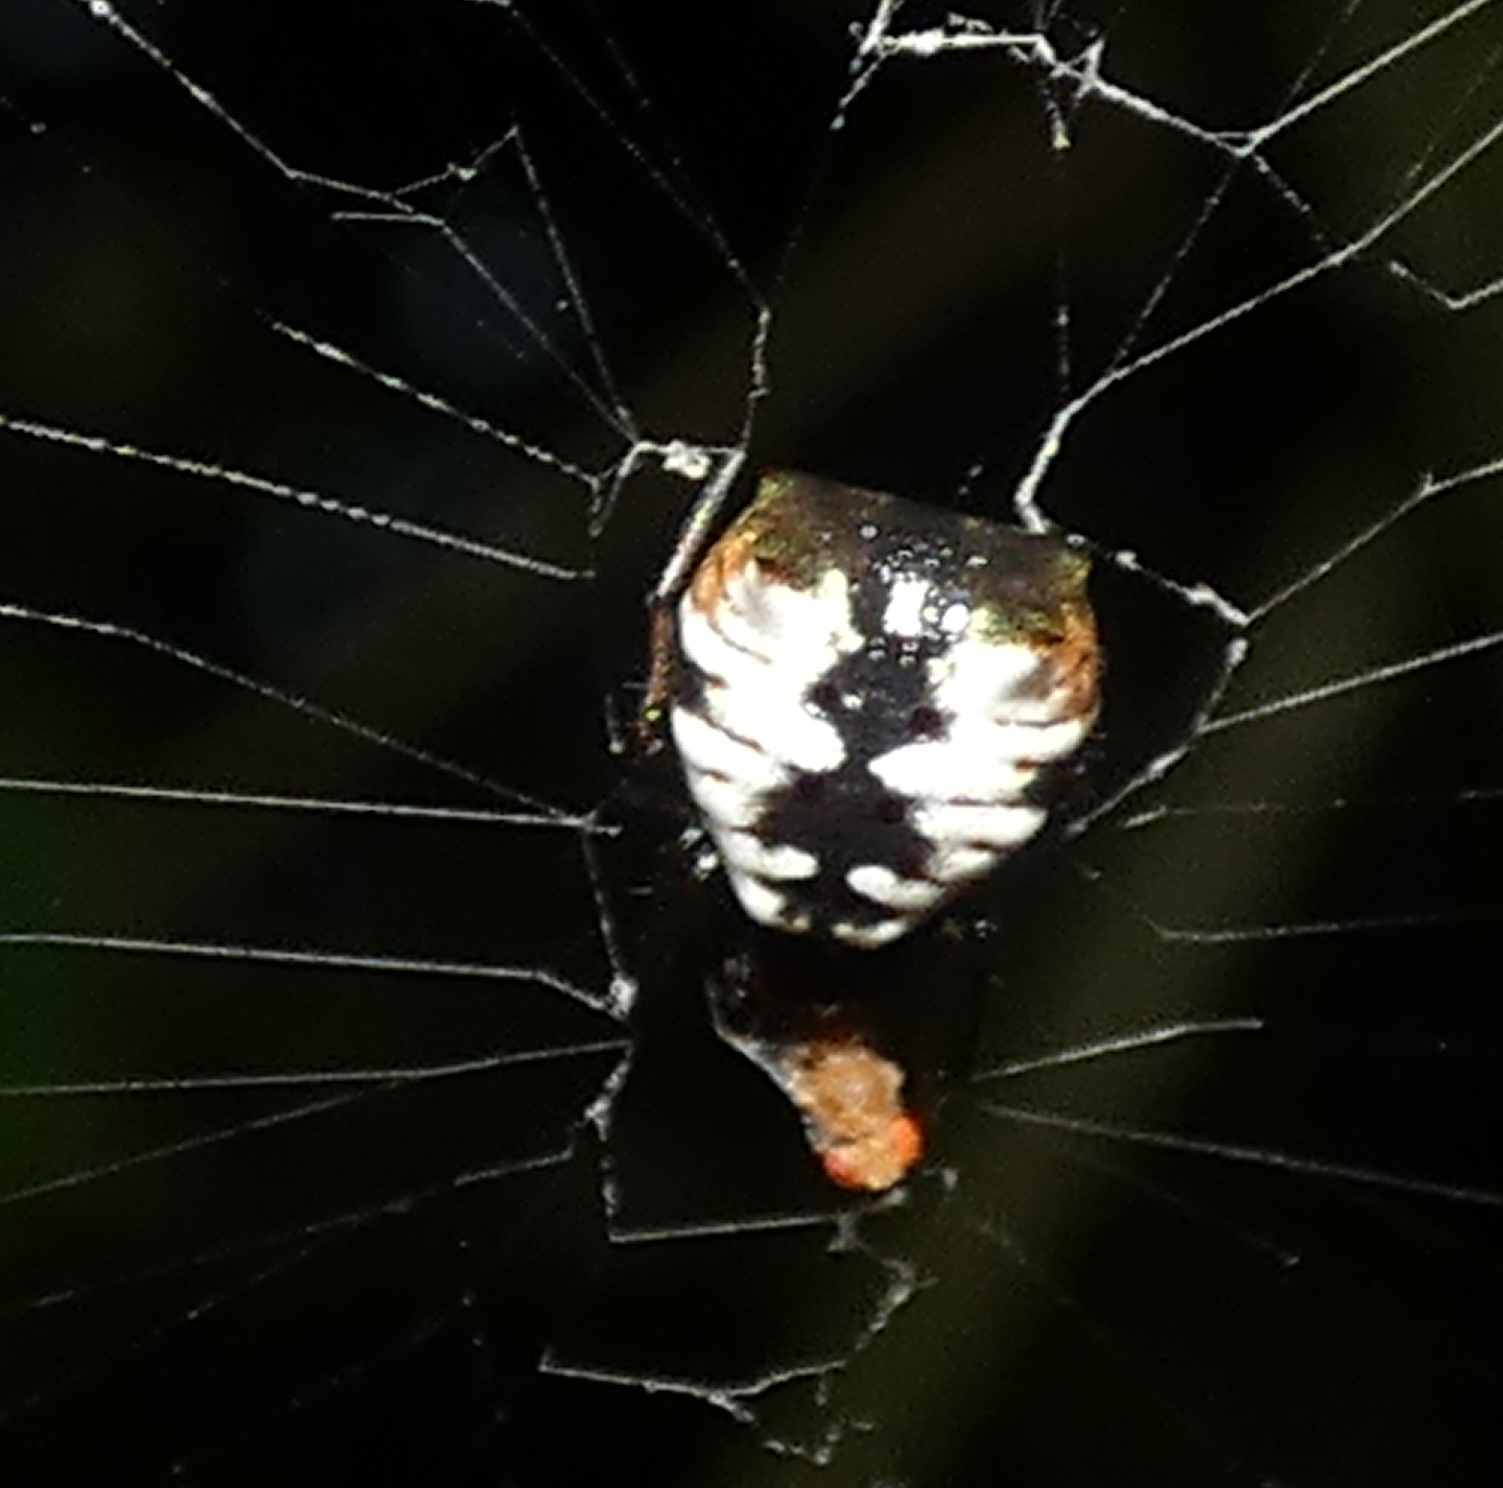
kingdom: Animalia
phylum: Arthropoda
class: Arachnida
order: Araneae
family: Araneidae
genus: Micrathena
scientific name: Micrathena patruelis
